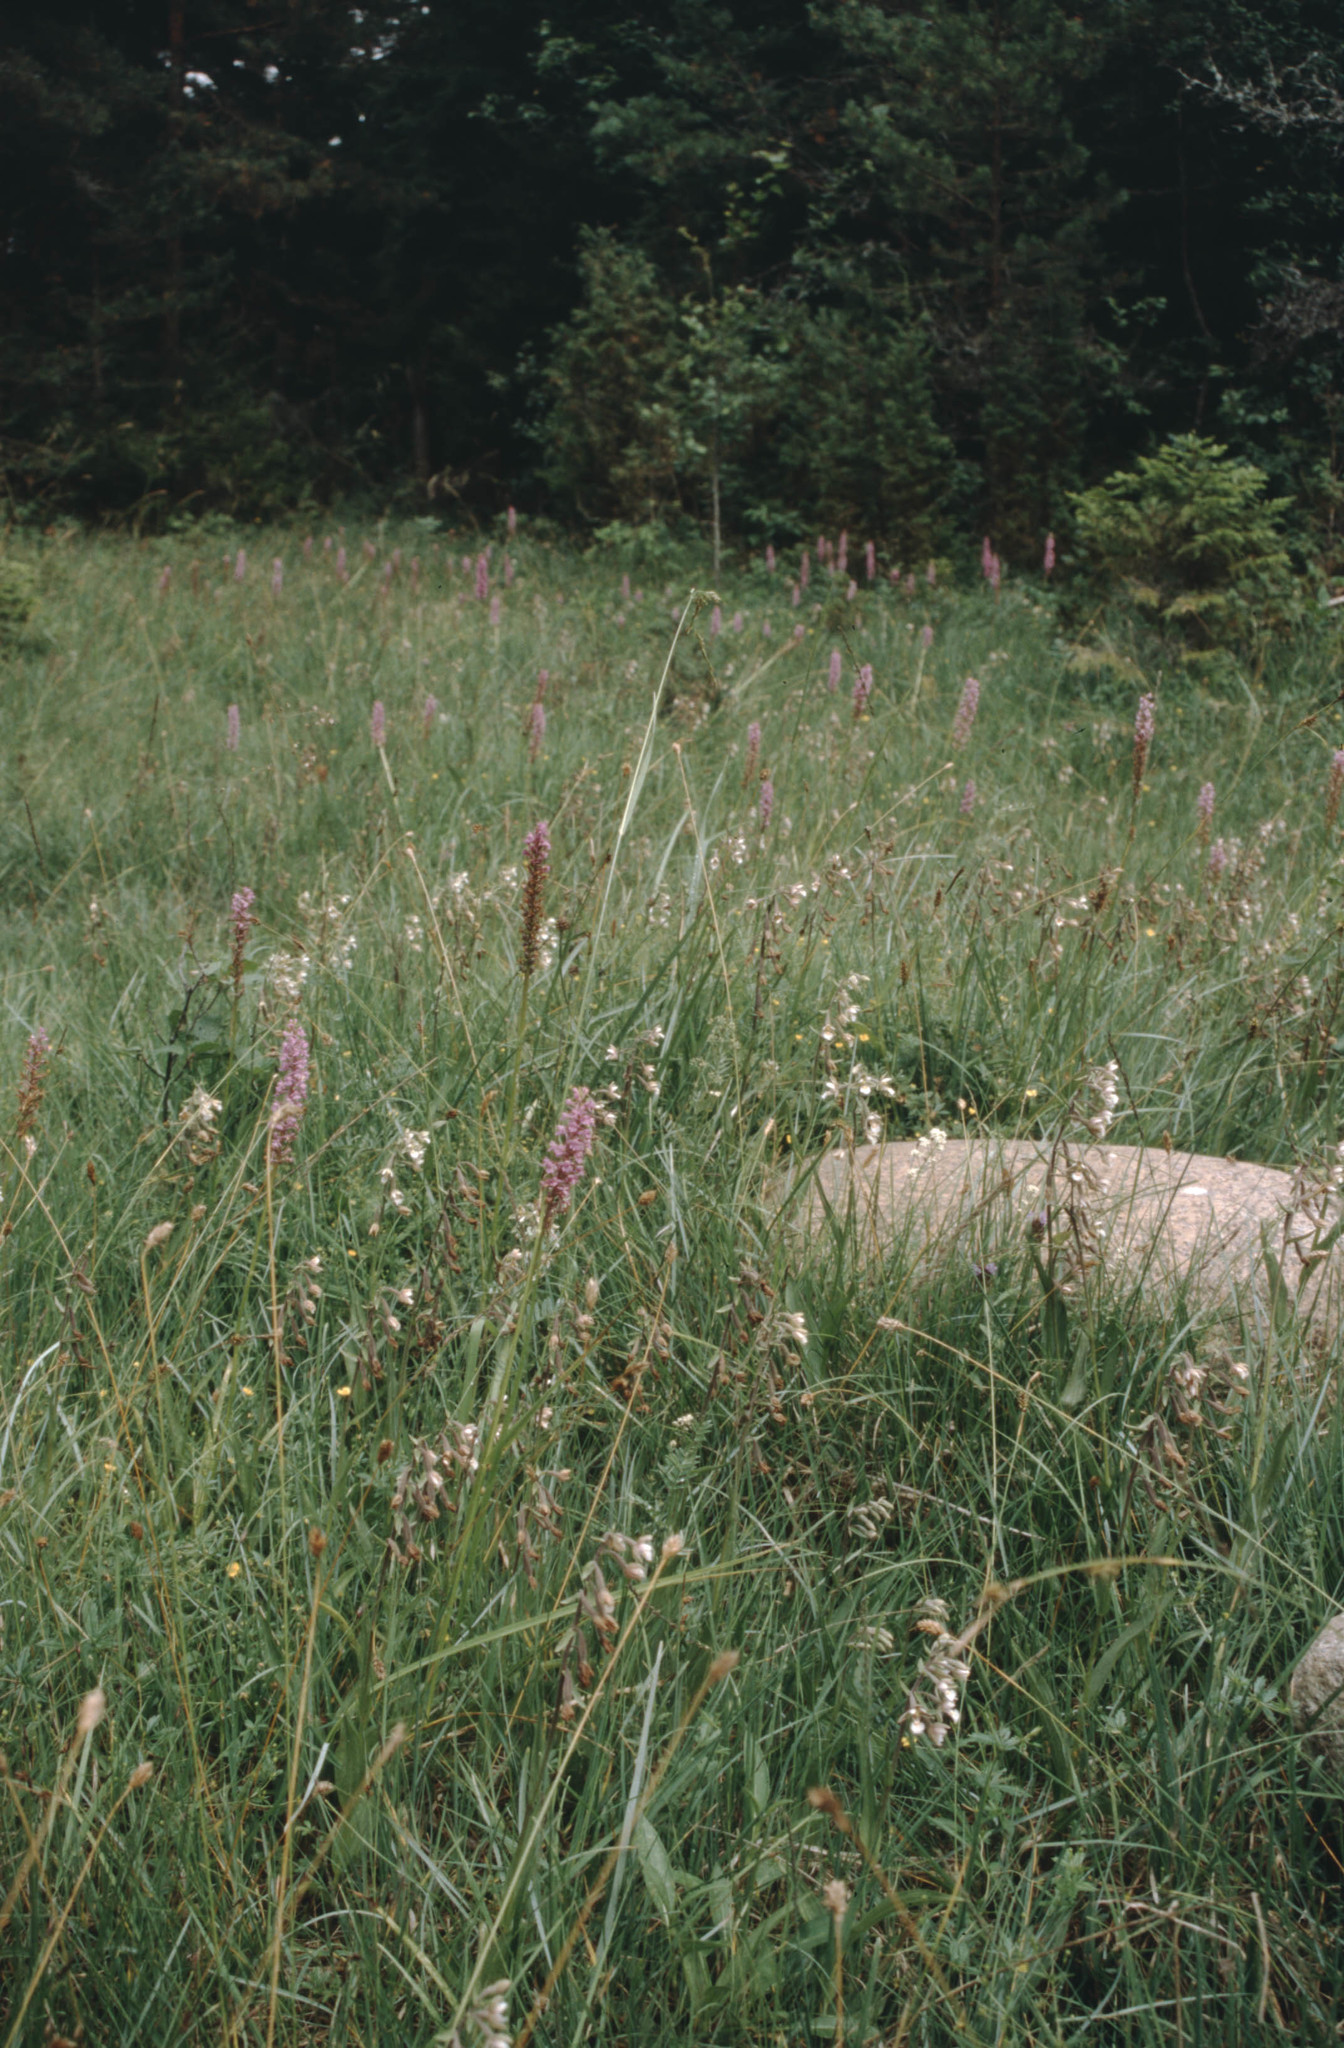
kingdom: Plantae
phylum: Tracheophyta
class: Liliopsida
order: Asparagales
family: Orchidaceae
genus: Gymnadenia
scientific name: Gymnadenia conopsea
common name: Fragrant orchid
